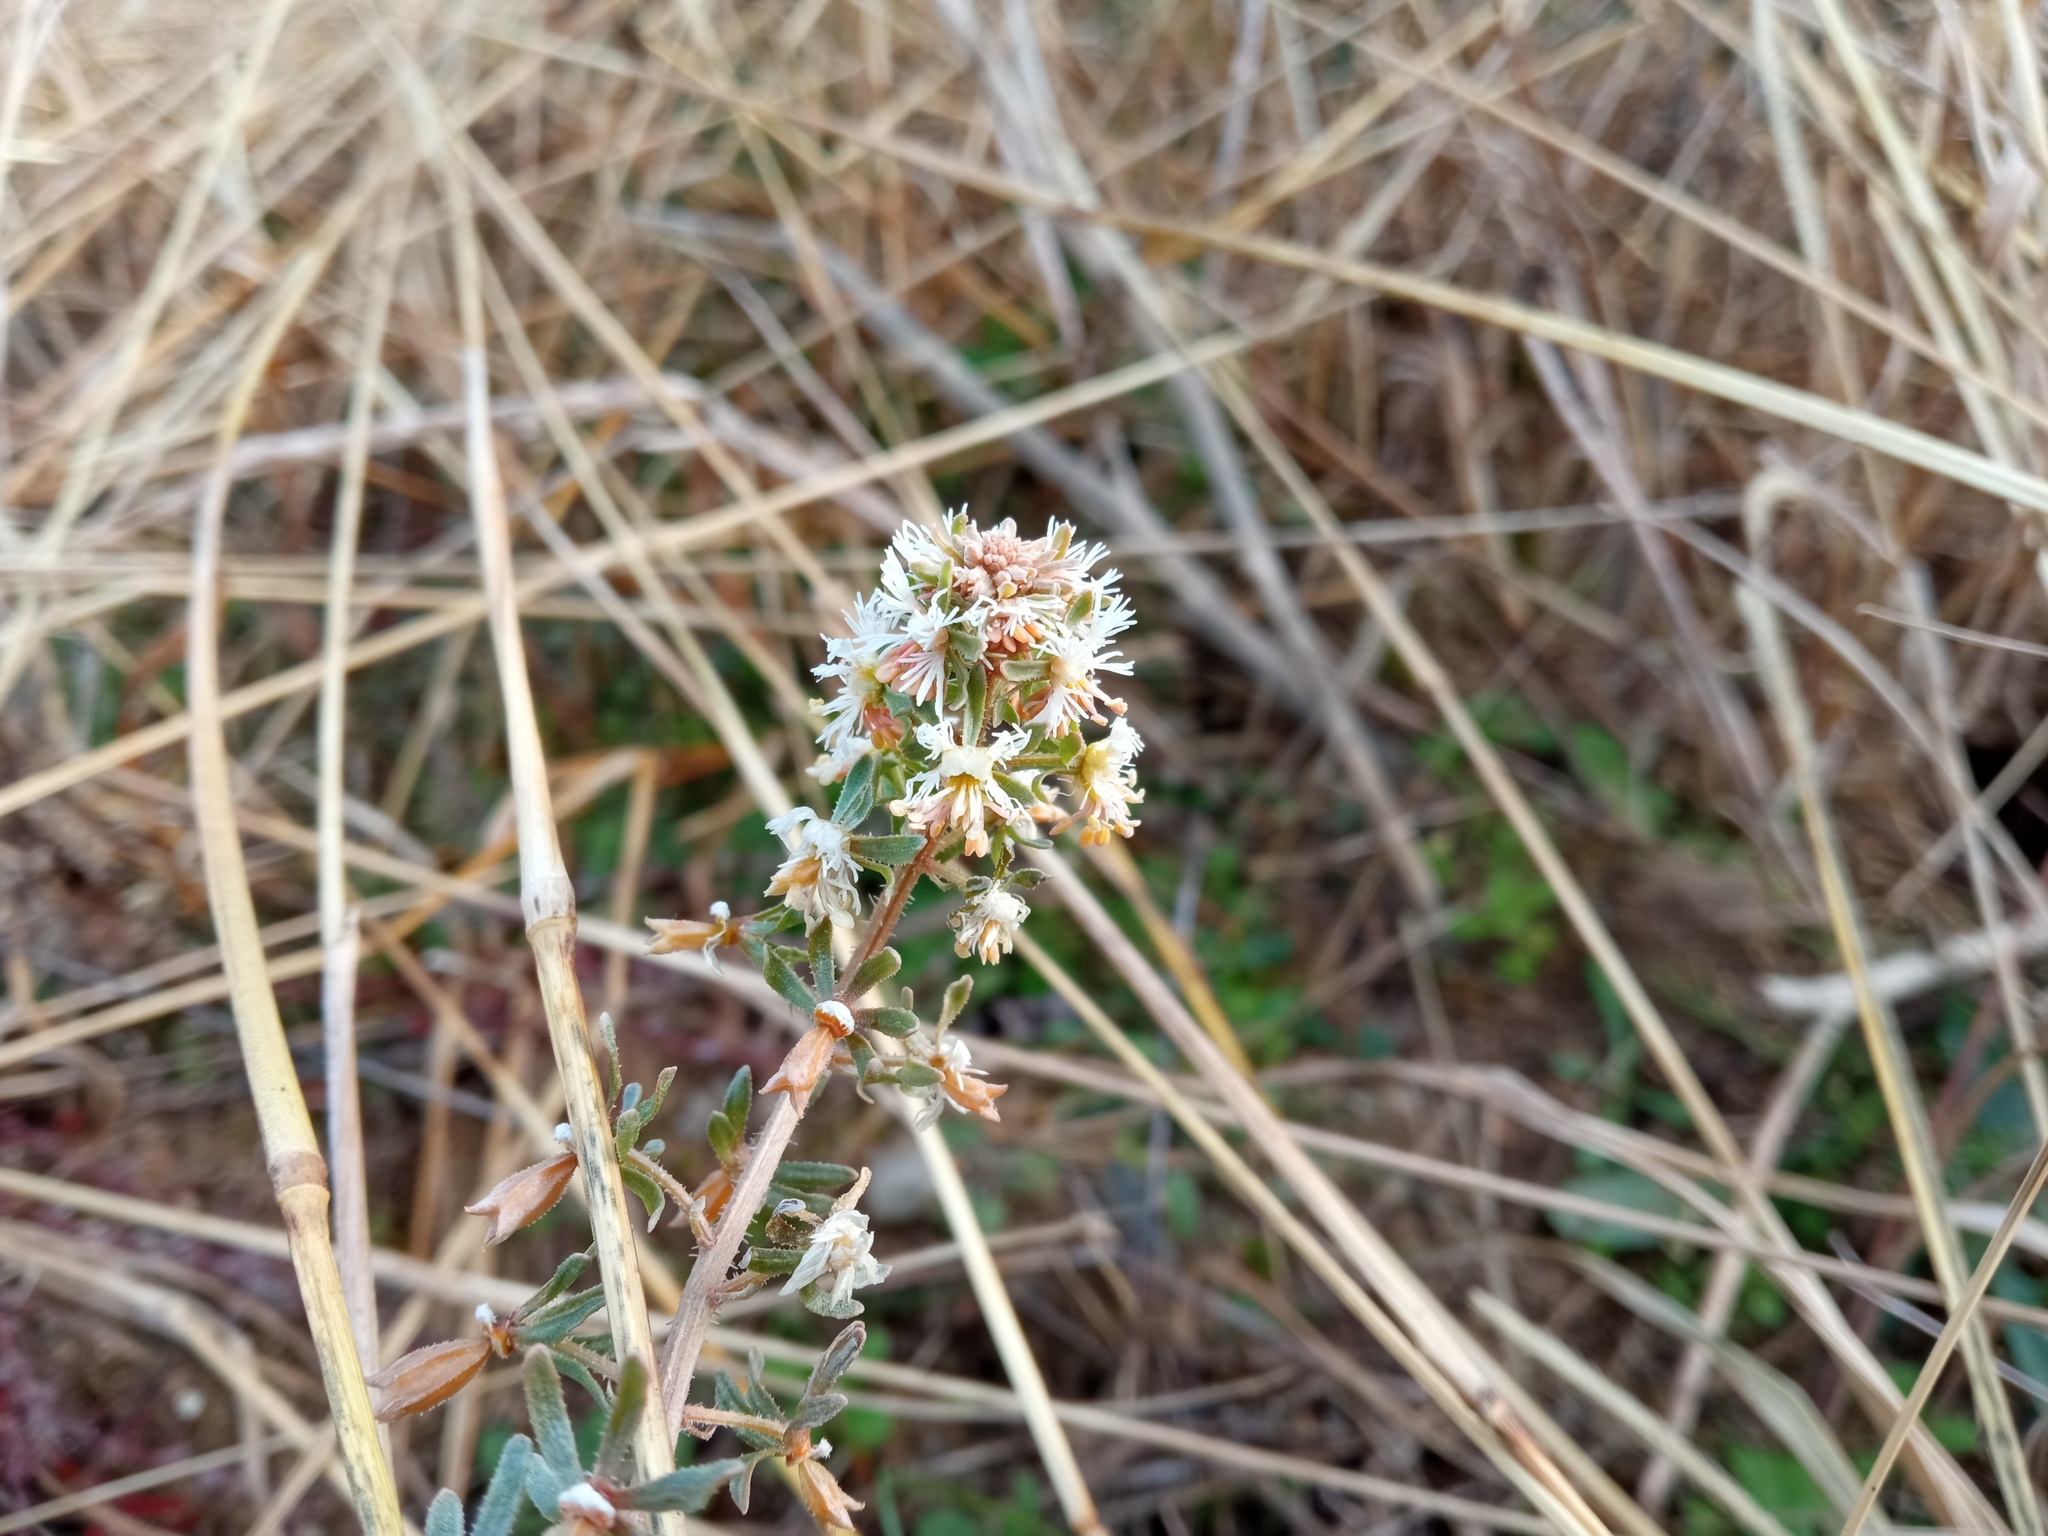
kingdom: Plantae
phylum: Tracheophyta
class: Magnoliopsida
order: Brassicales
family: Resedaceae
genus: Reseda
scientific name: Reseda phyteuma
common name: Corn mignonette
